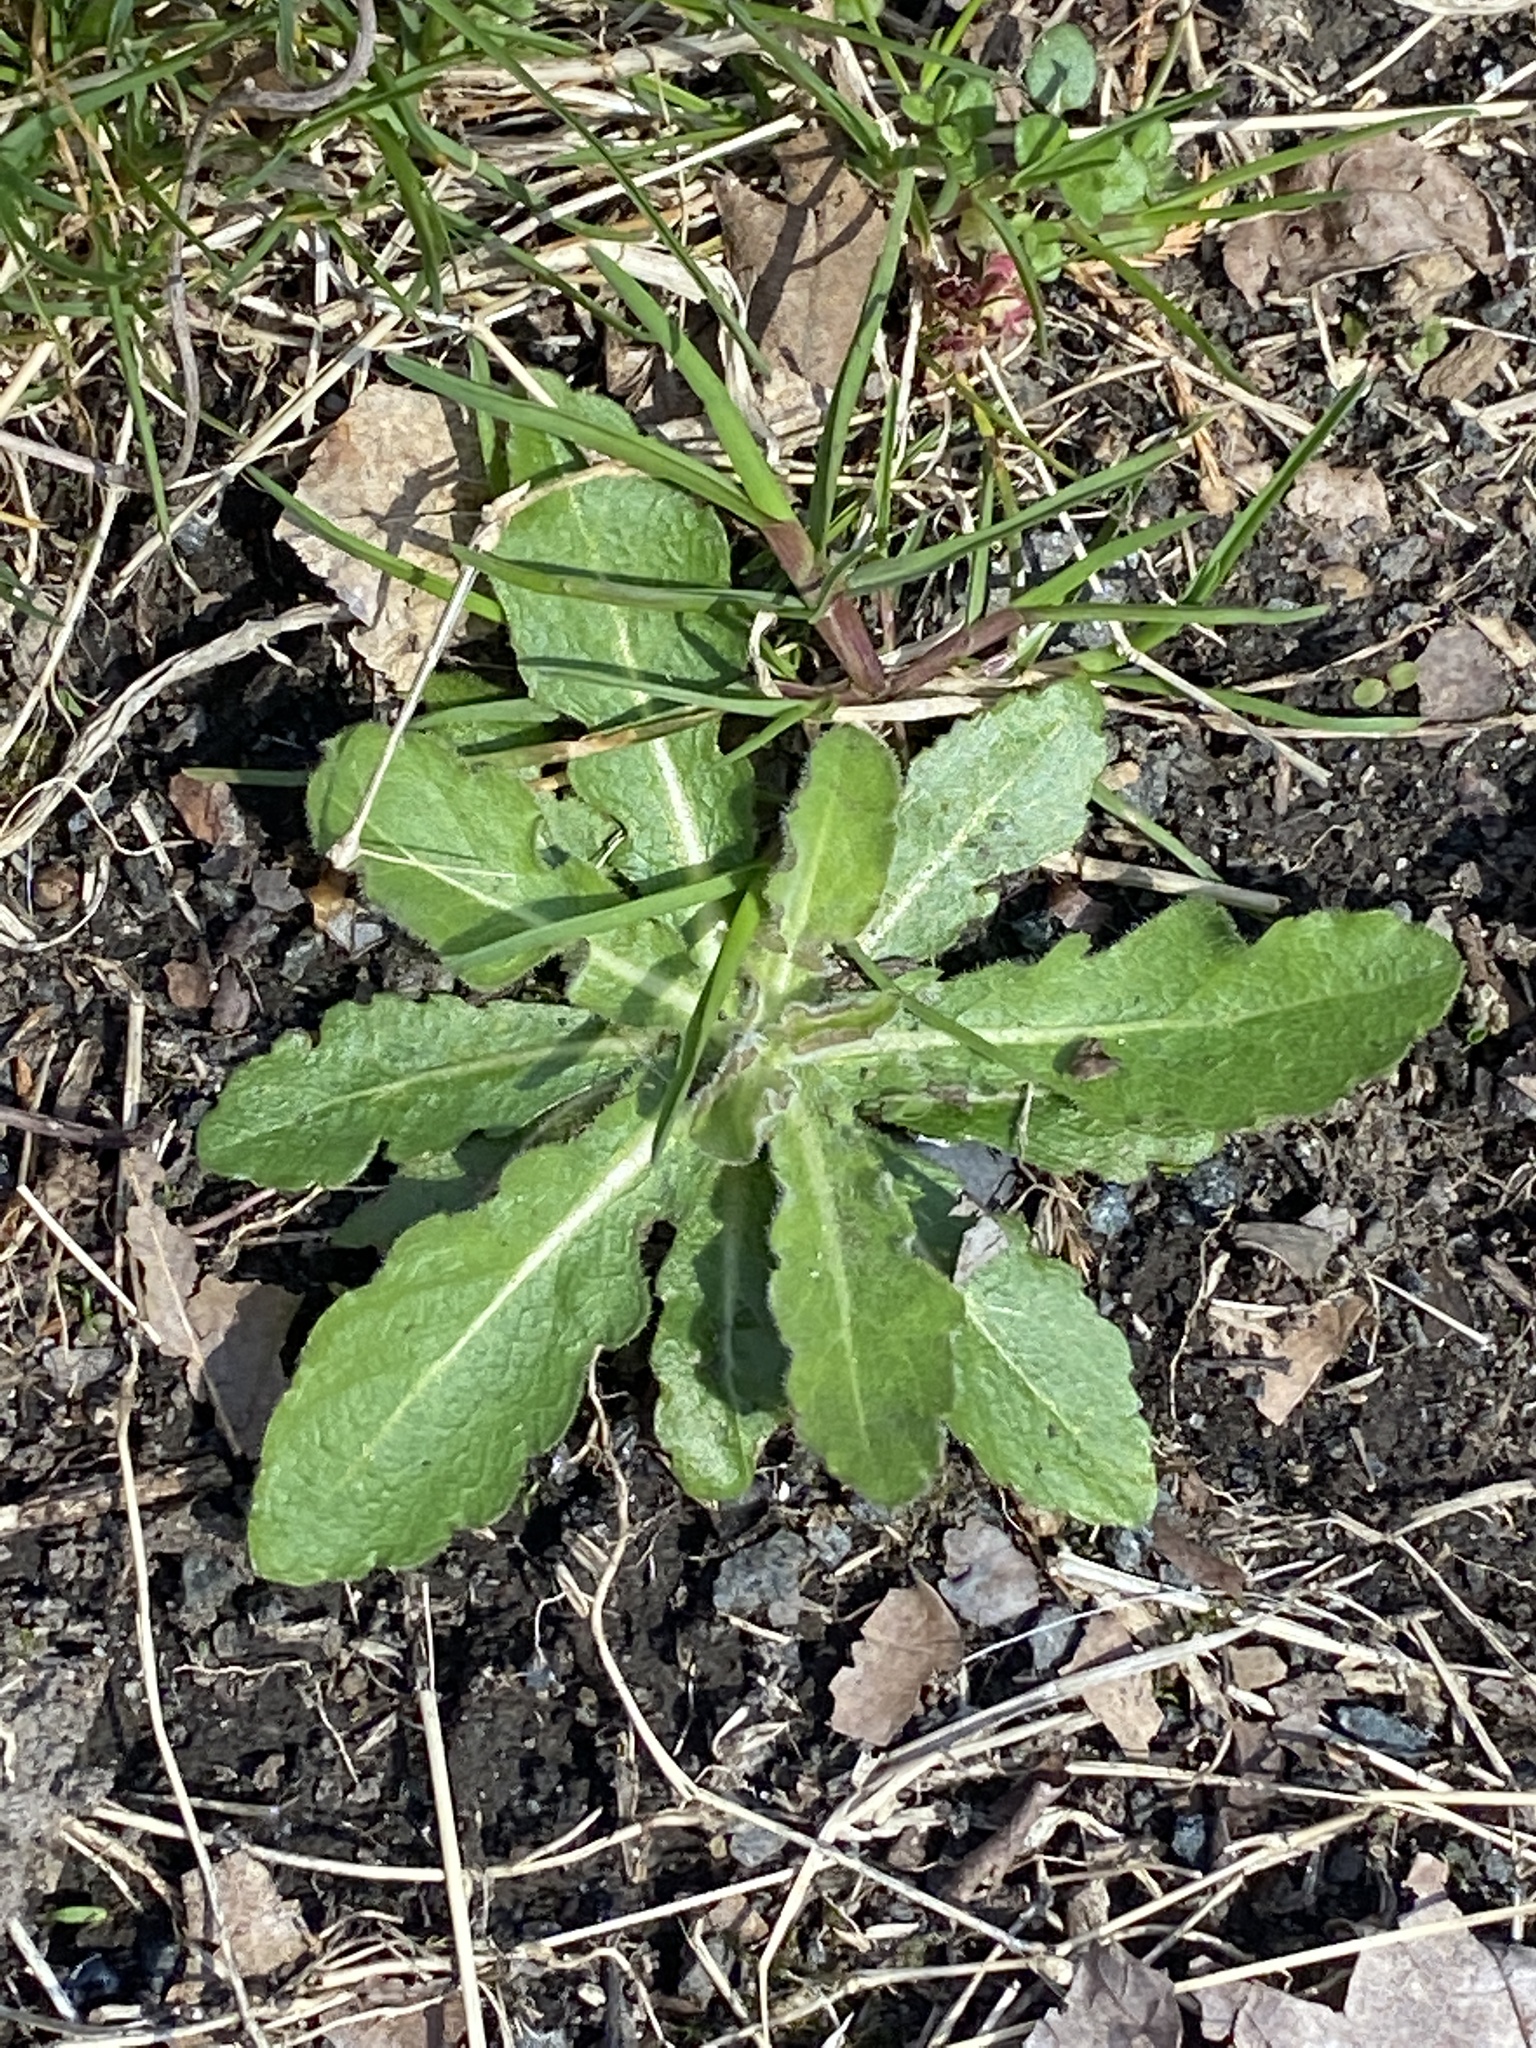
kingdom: Plantae
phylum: Tracheophyta
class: Magnoliopsida
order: Asterales
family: Asteraceae
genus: Hypochaeris
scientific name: Hypochaeris radicata
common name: Flatweed
